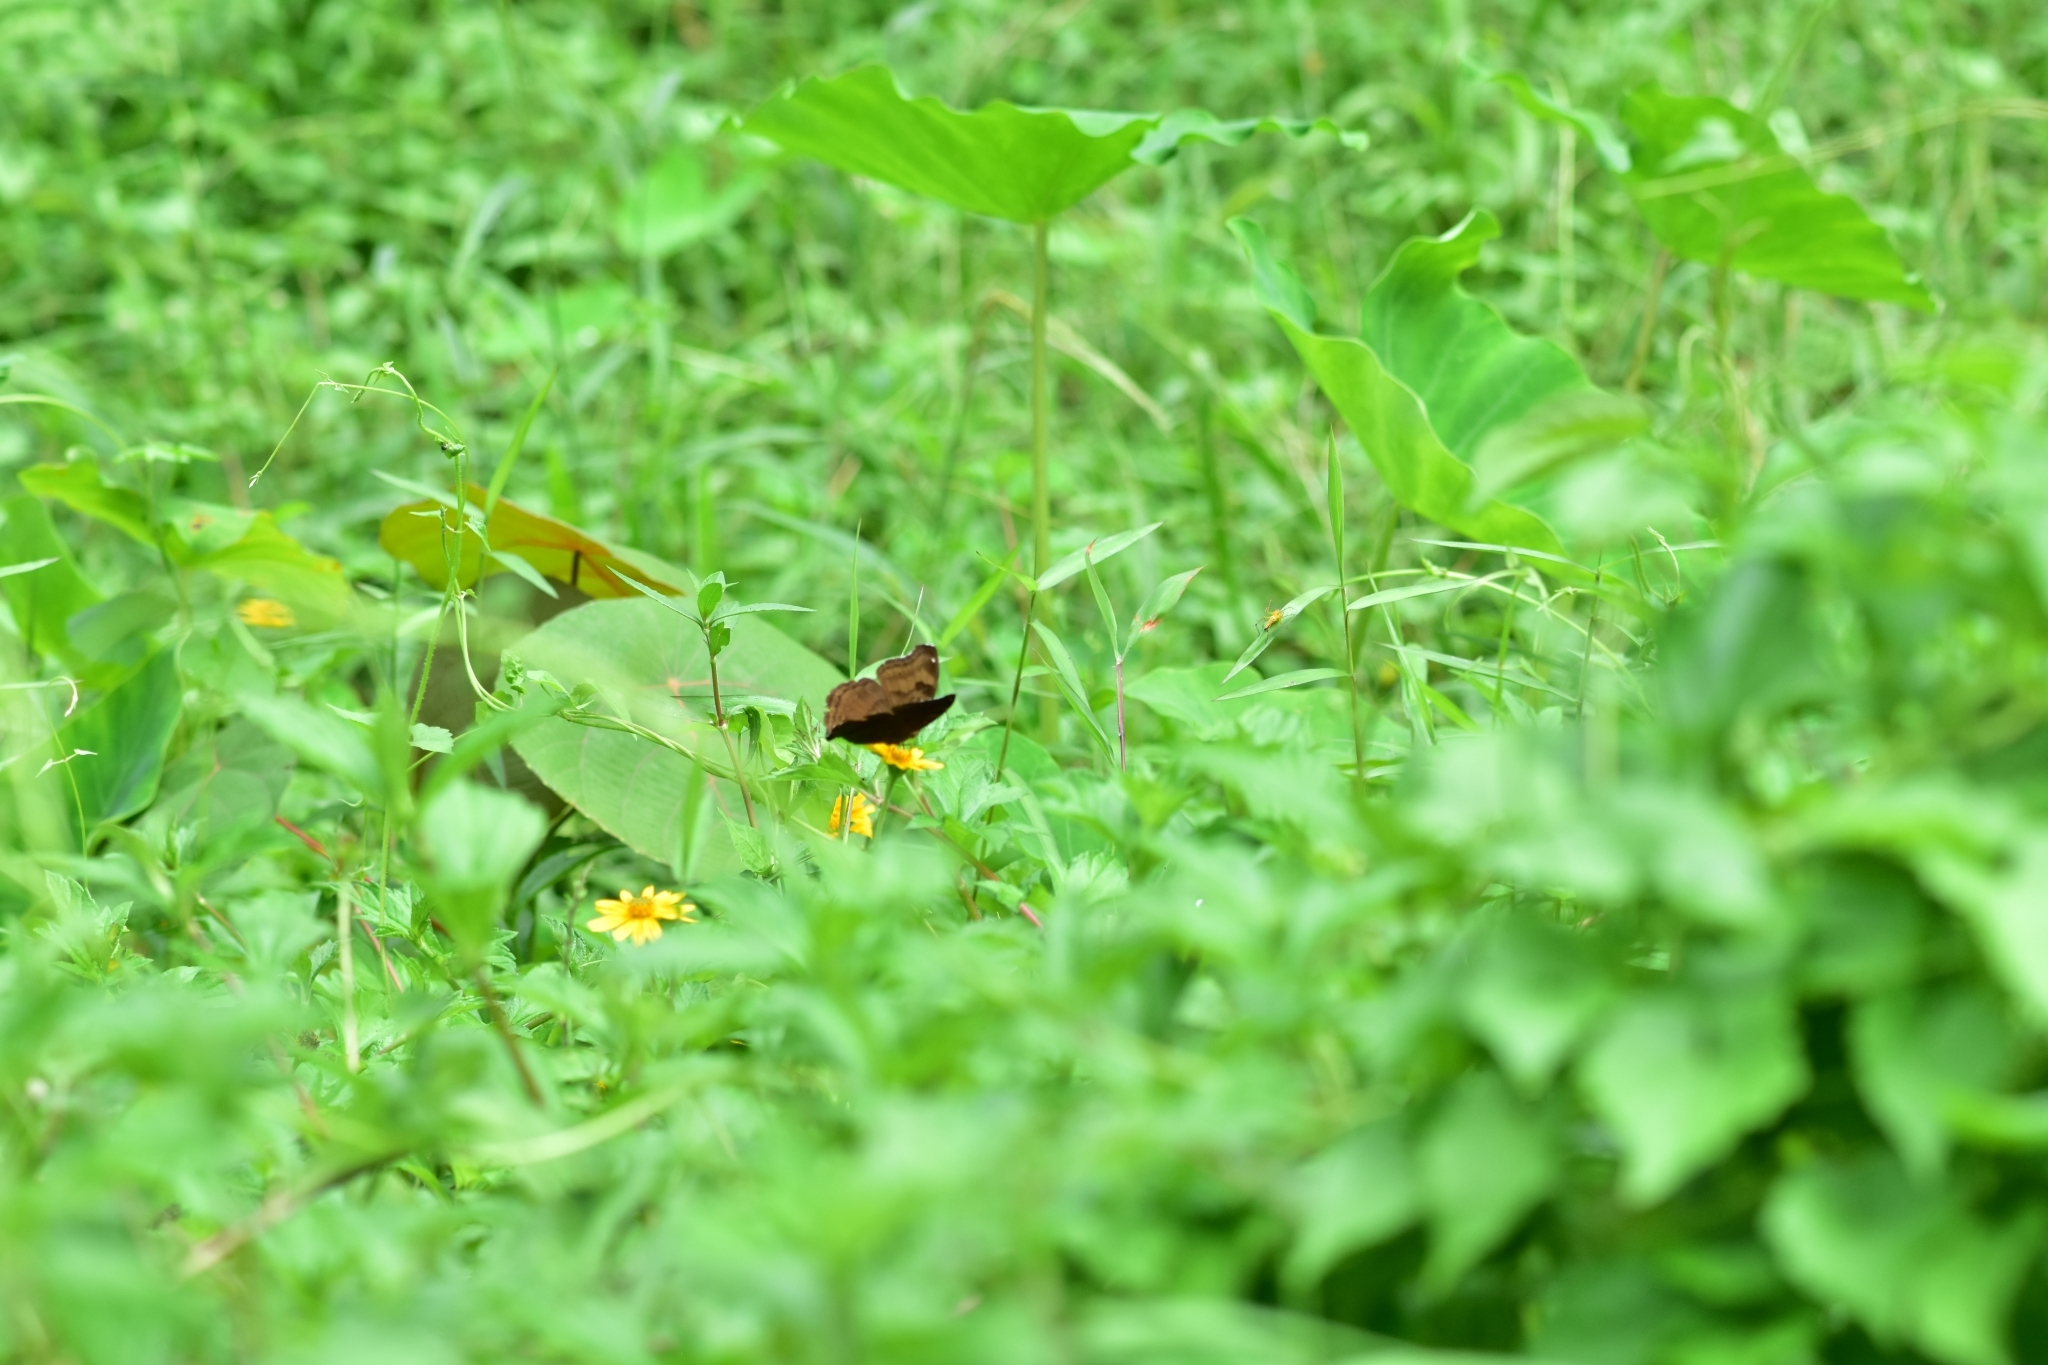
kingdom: Animalia
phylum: Arthropoda
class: Insecta
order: Lepidoptera
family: Nymphalidae
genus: Junonia
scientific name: Junonia iphita
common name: Chocolate pansy
